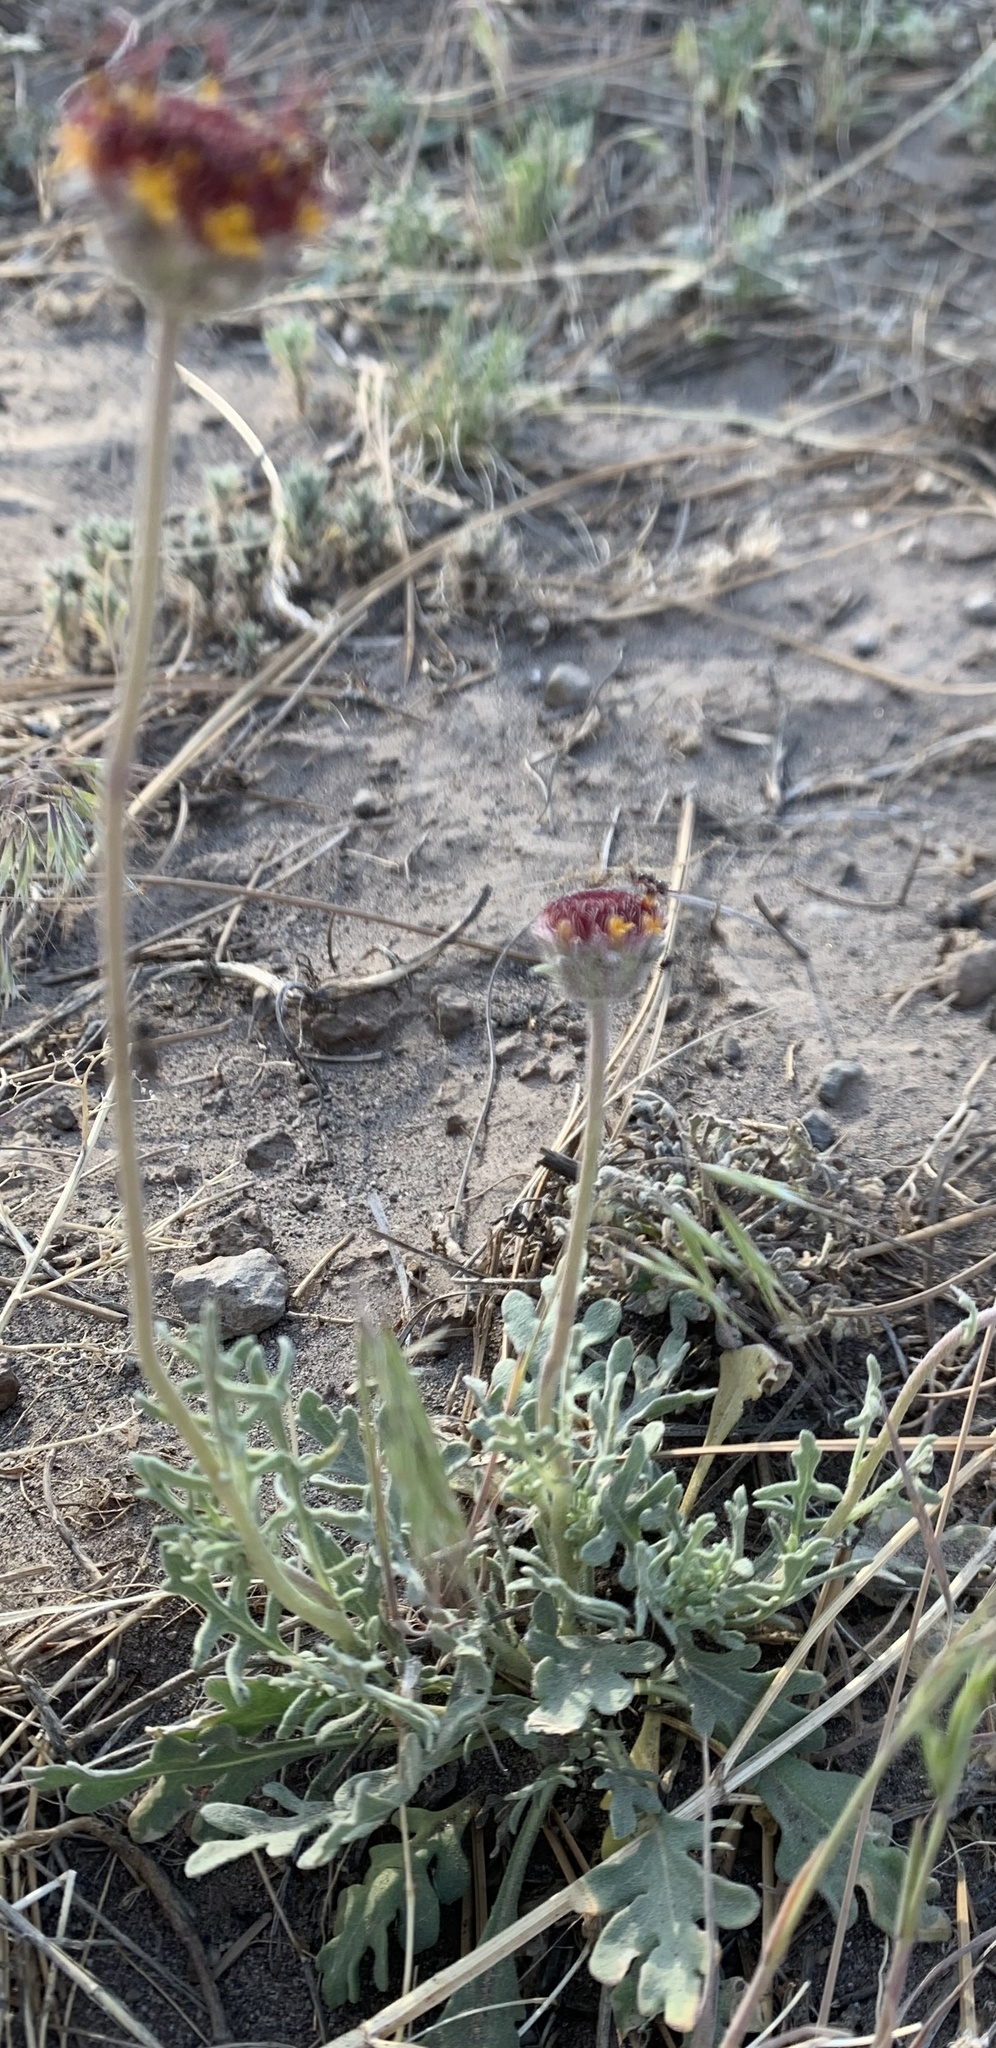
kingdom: Plantae
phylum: Tracheophyta
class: Magnoliopsida
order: Asterales
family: Asteraceae
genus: Gaillardia
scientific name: Gaillardia pinnatifida
